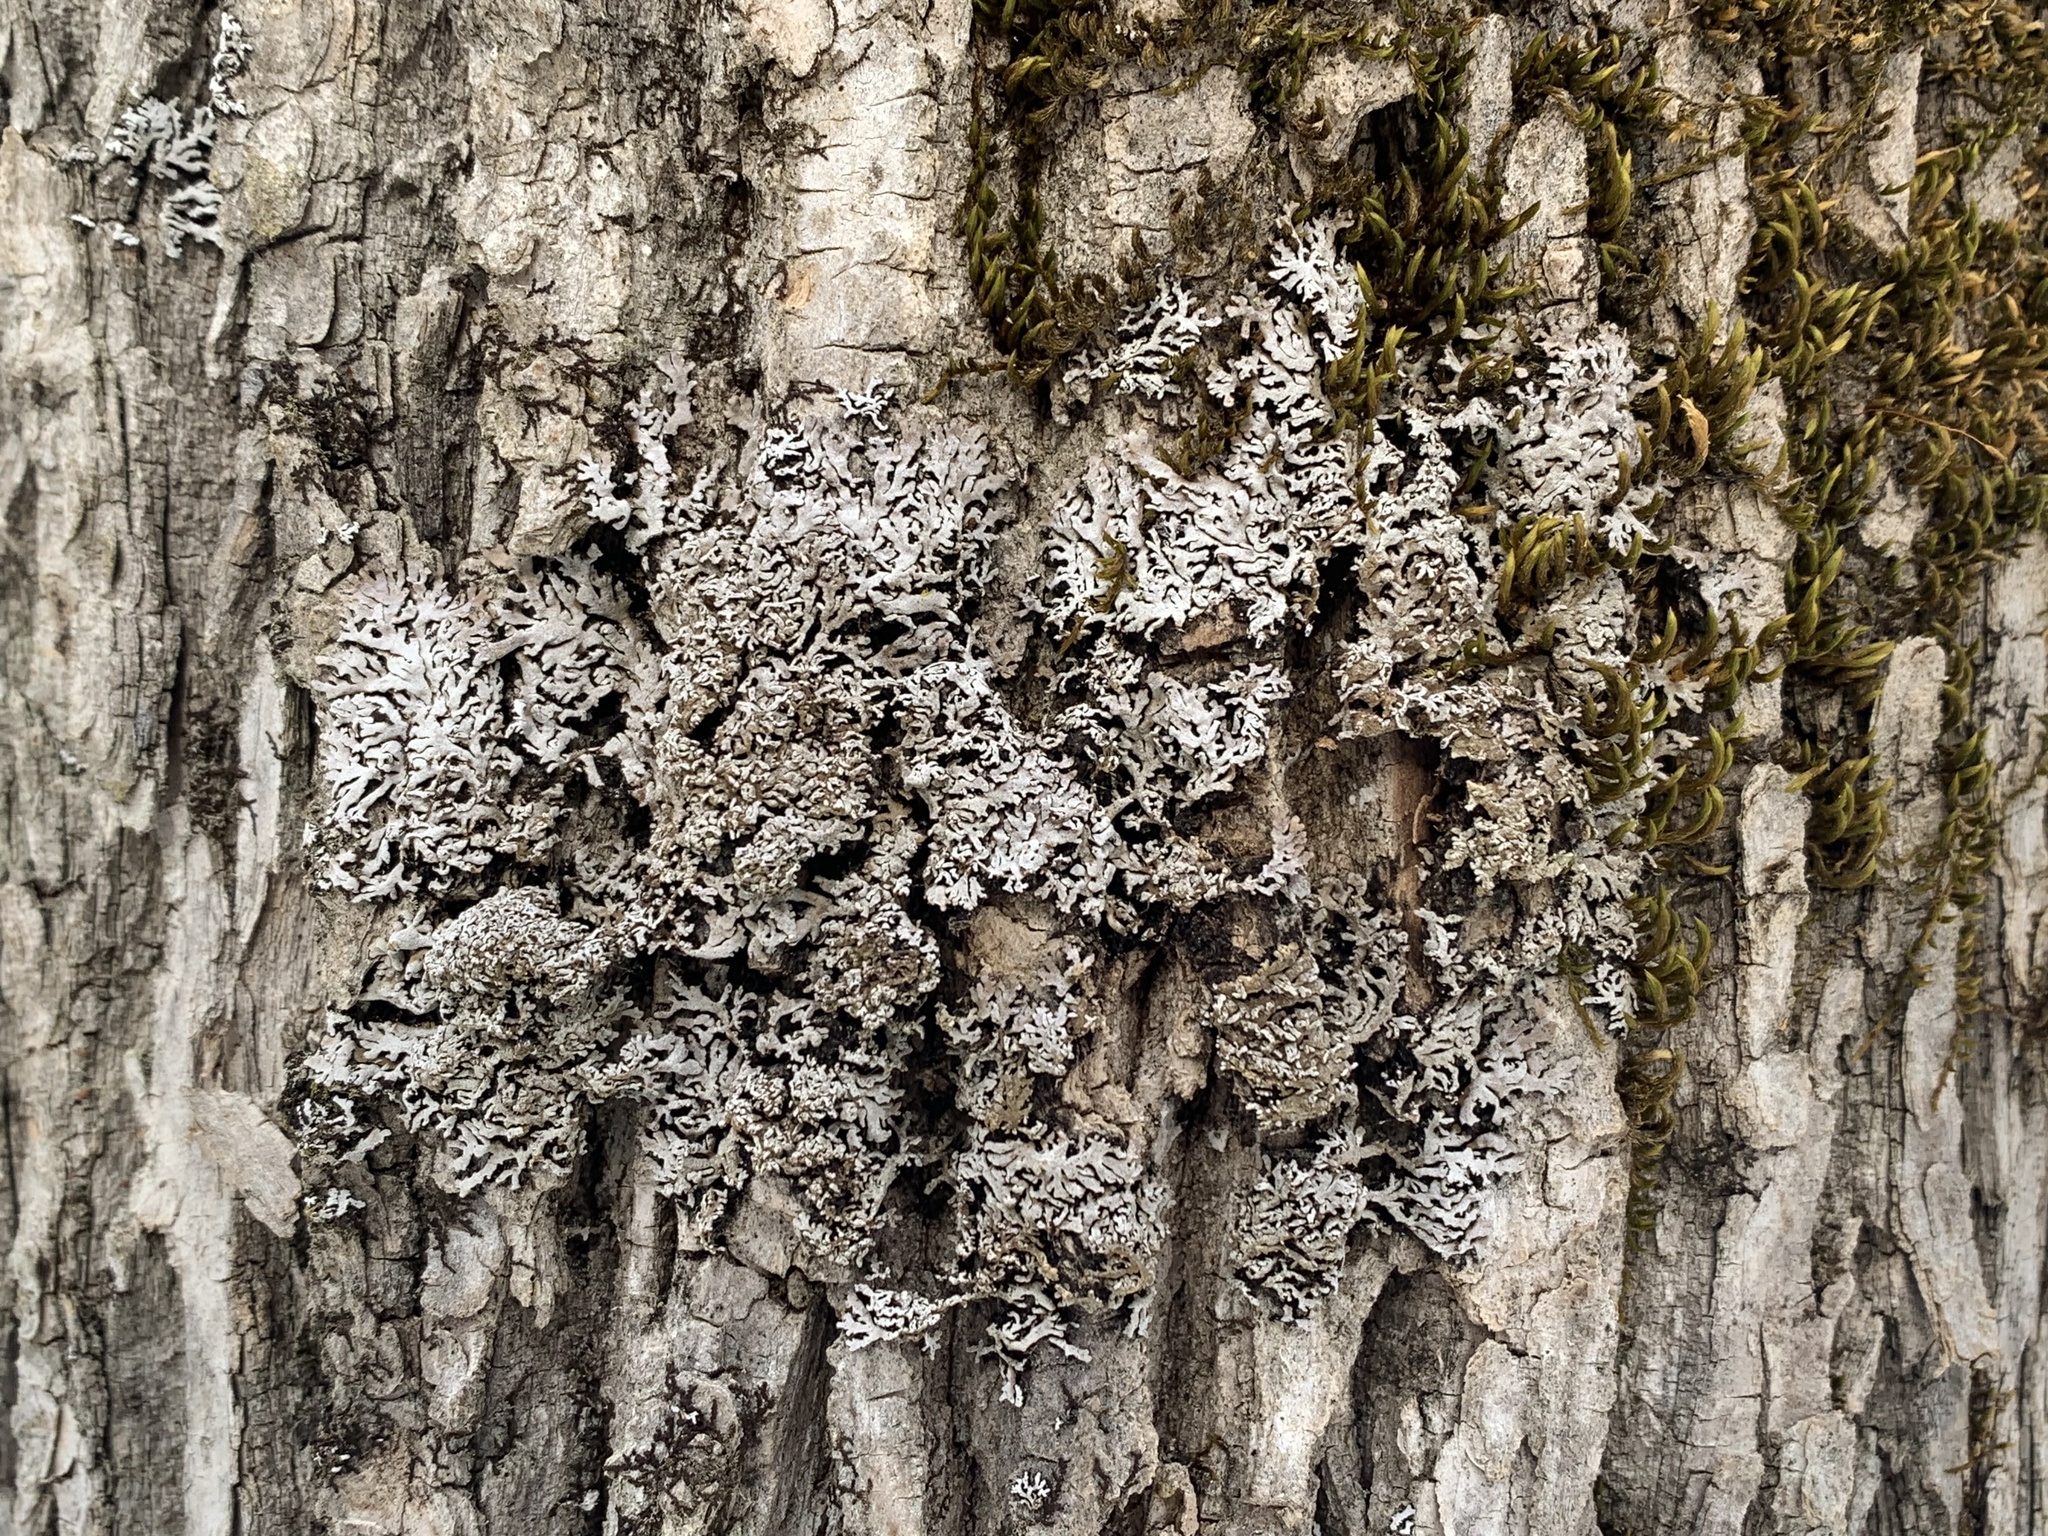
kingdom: Fungi
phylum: Ascomycota
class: Lecanoromycetes
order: Caliciales
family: Physciaceae
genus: Physconia
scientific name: Physconia subpallida
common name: Pale-belly frost lichen
